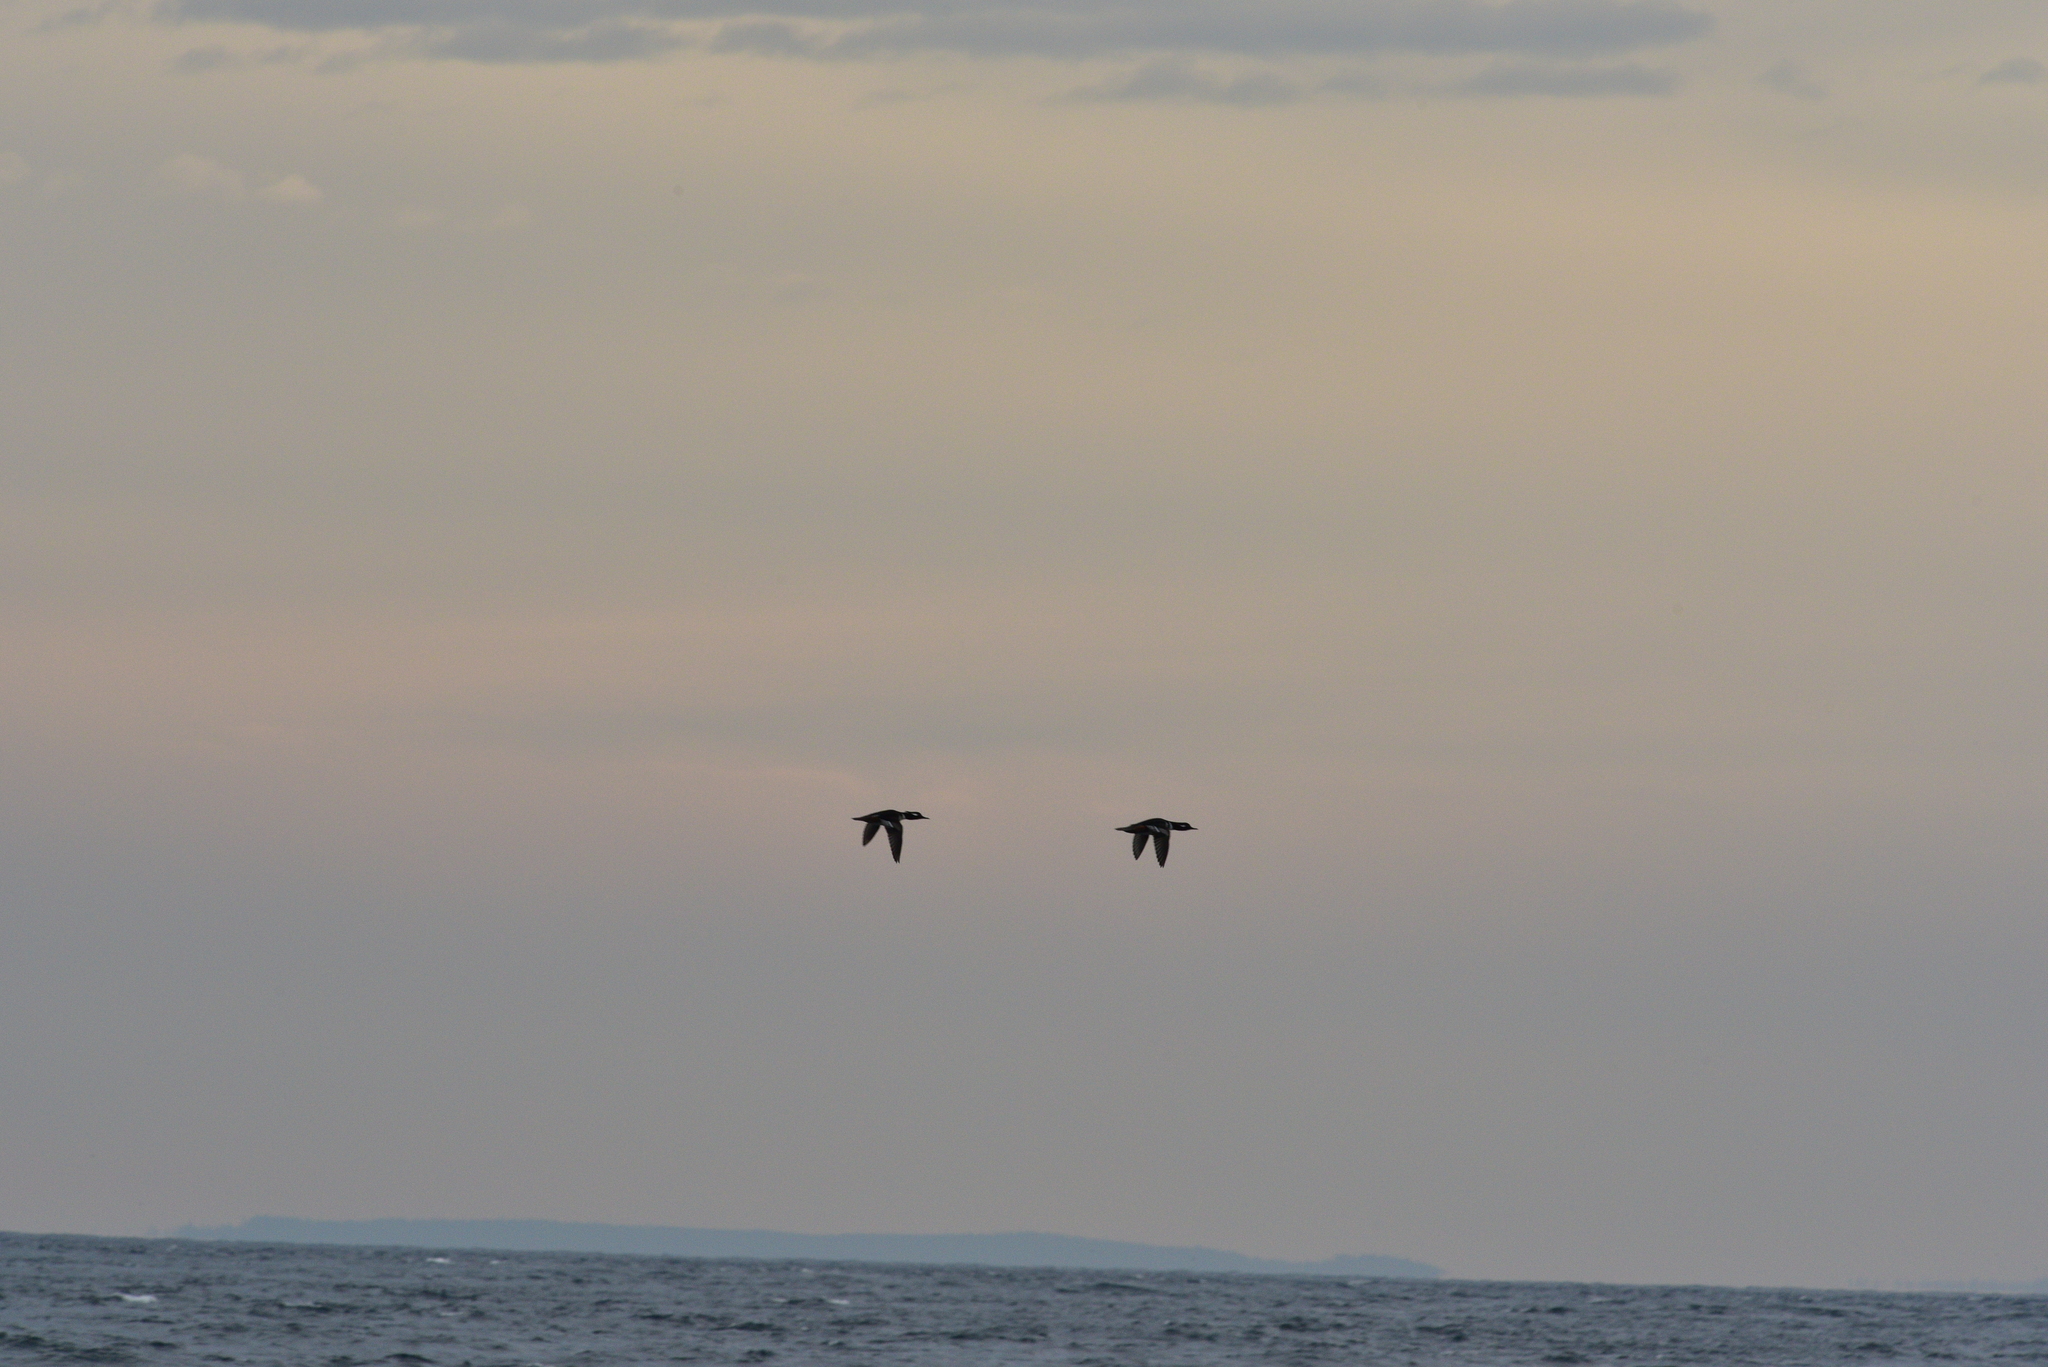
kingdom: Animalia
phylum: Chordata
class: Aves
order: Anseriformes
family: Anatidae
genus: Lophodytes
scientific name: Lophodytes cucullatus
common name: Hooded merganser
